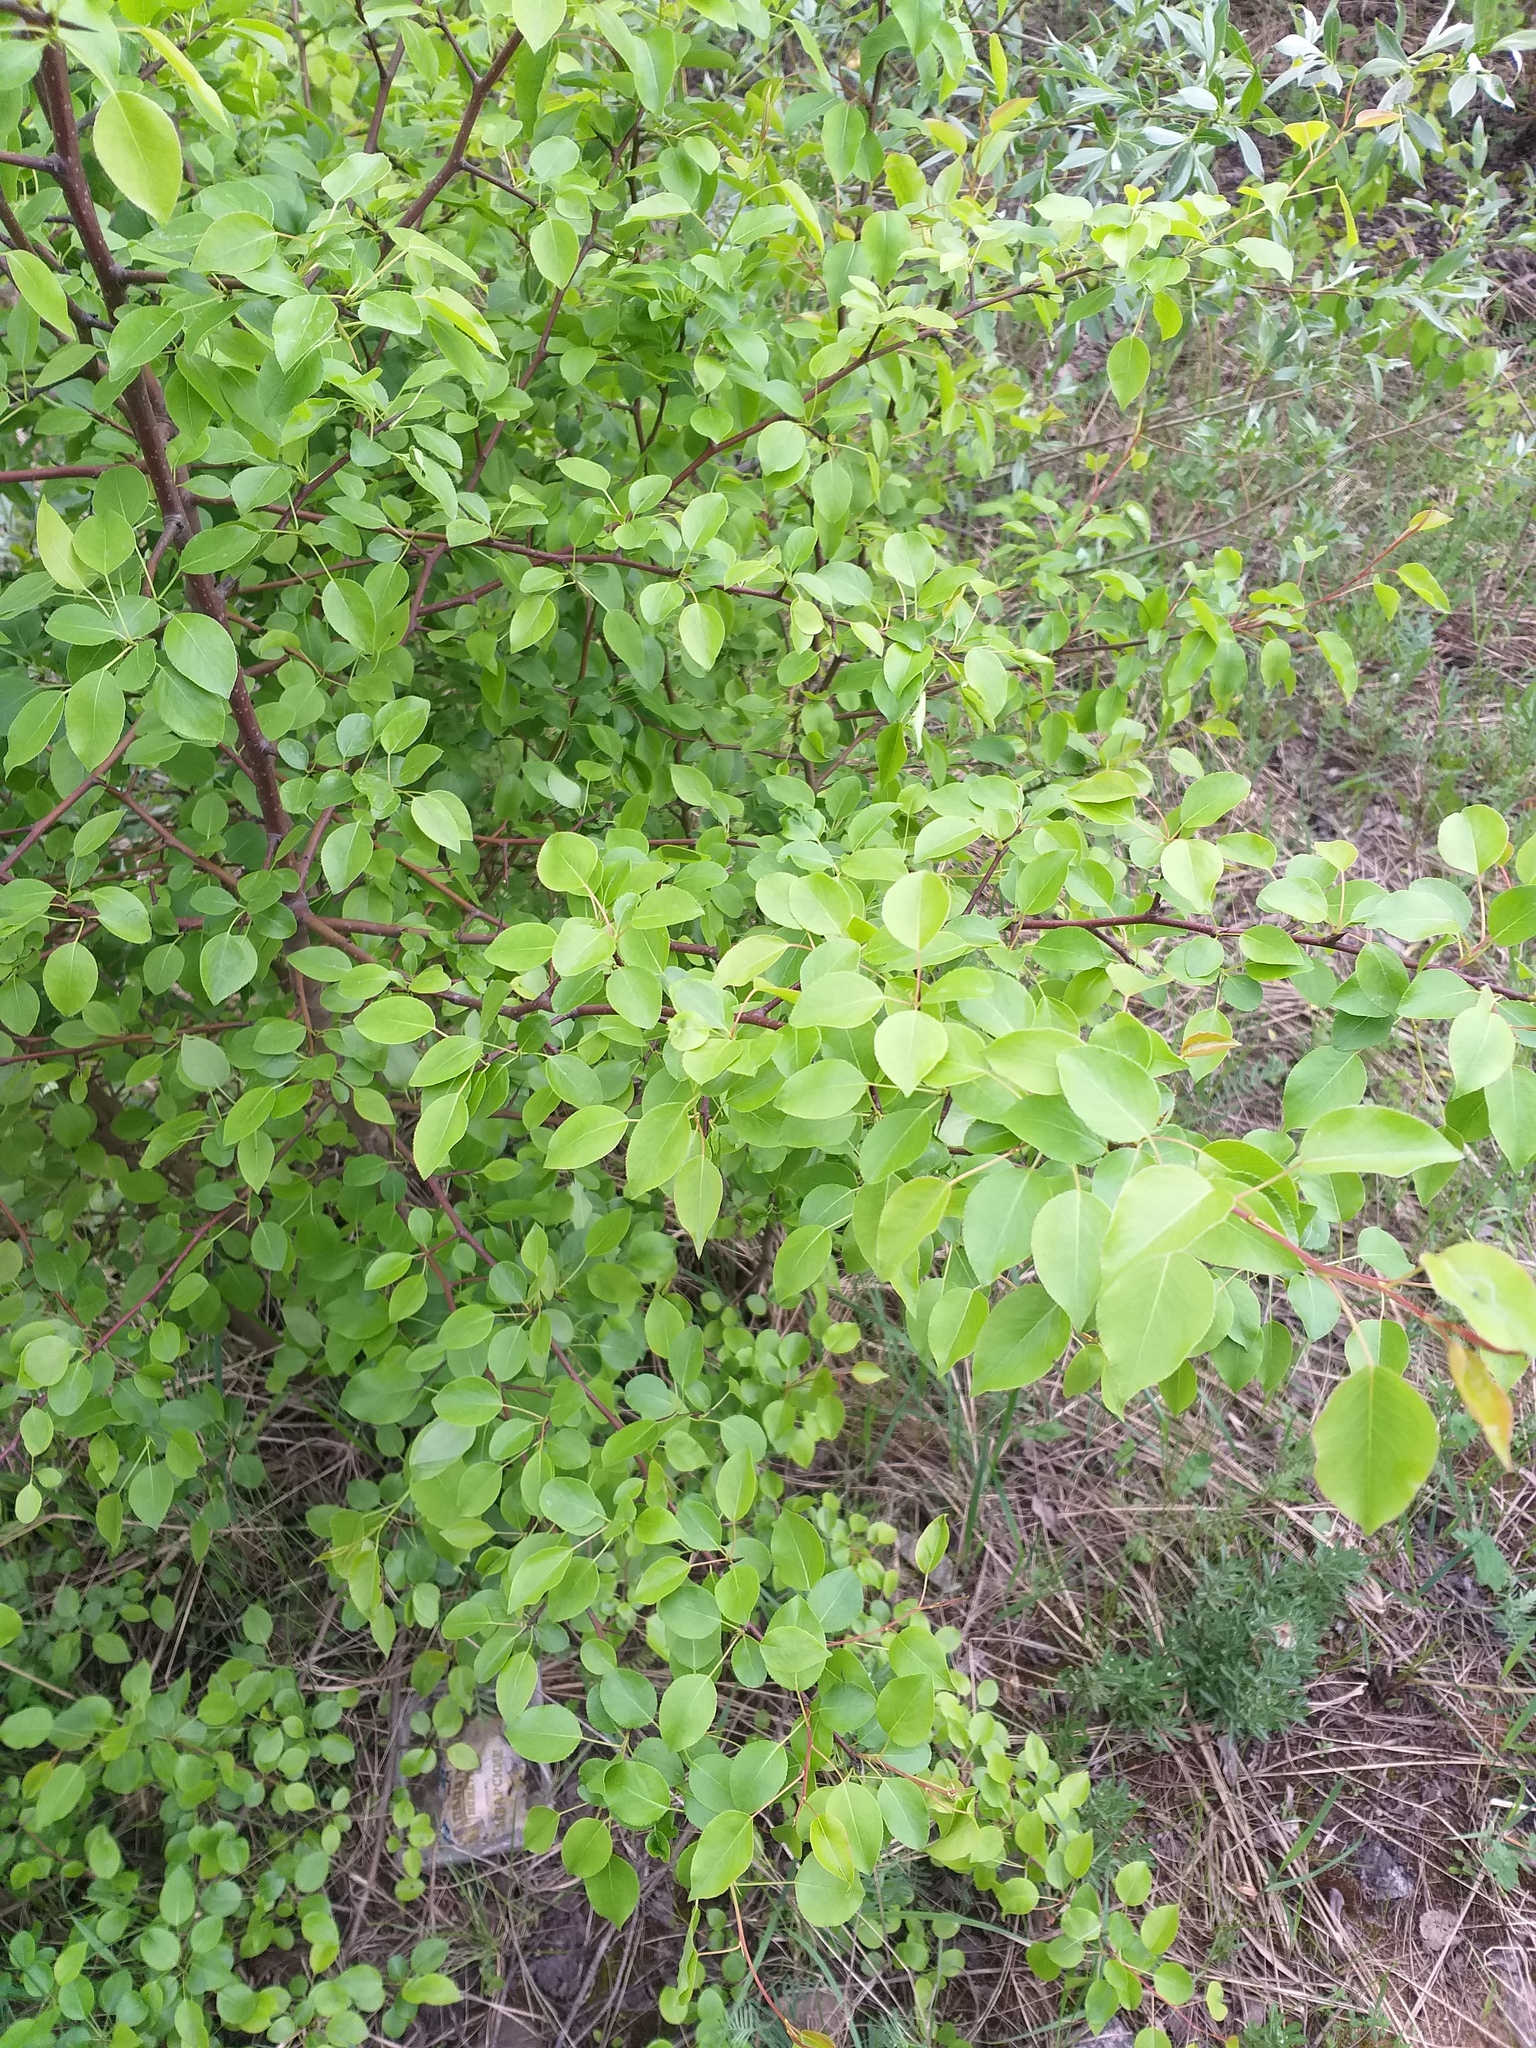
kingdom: Plantae
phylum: Tracheophyta
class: Magnoliopsida
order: Rosales
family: Rosaceae
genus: Pyrus
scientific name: Pyrus communis
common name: Pear
